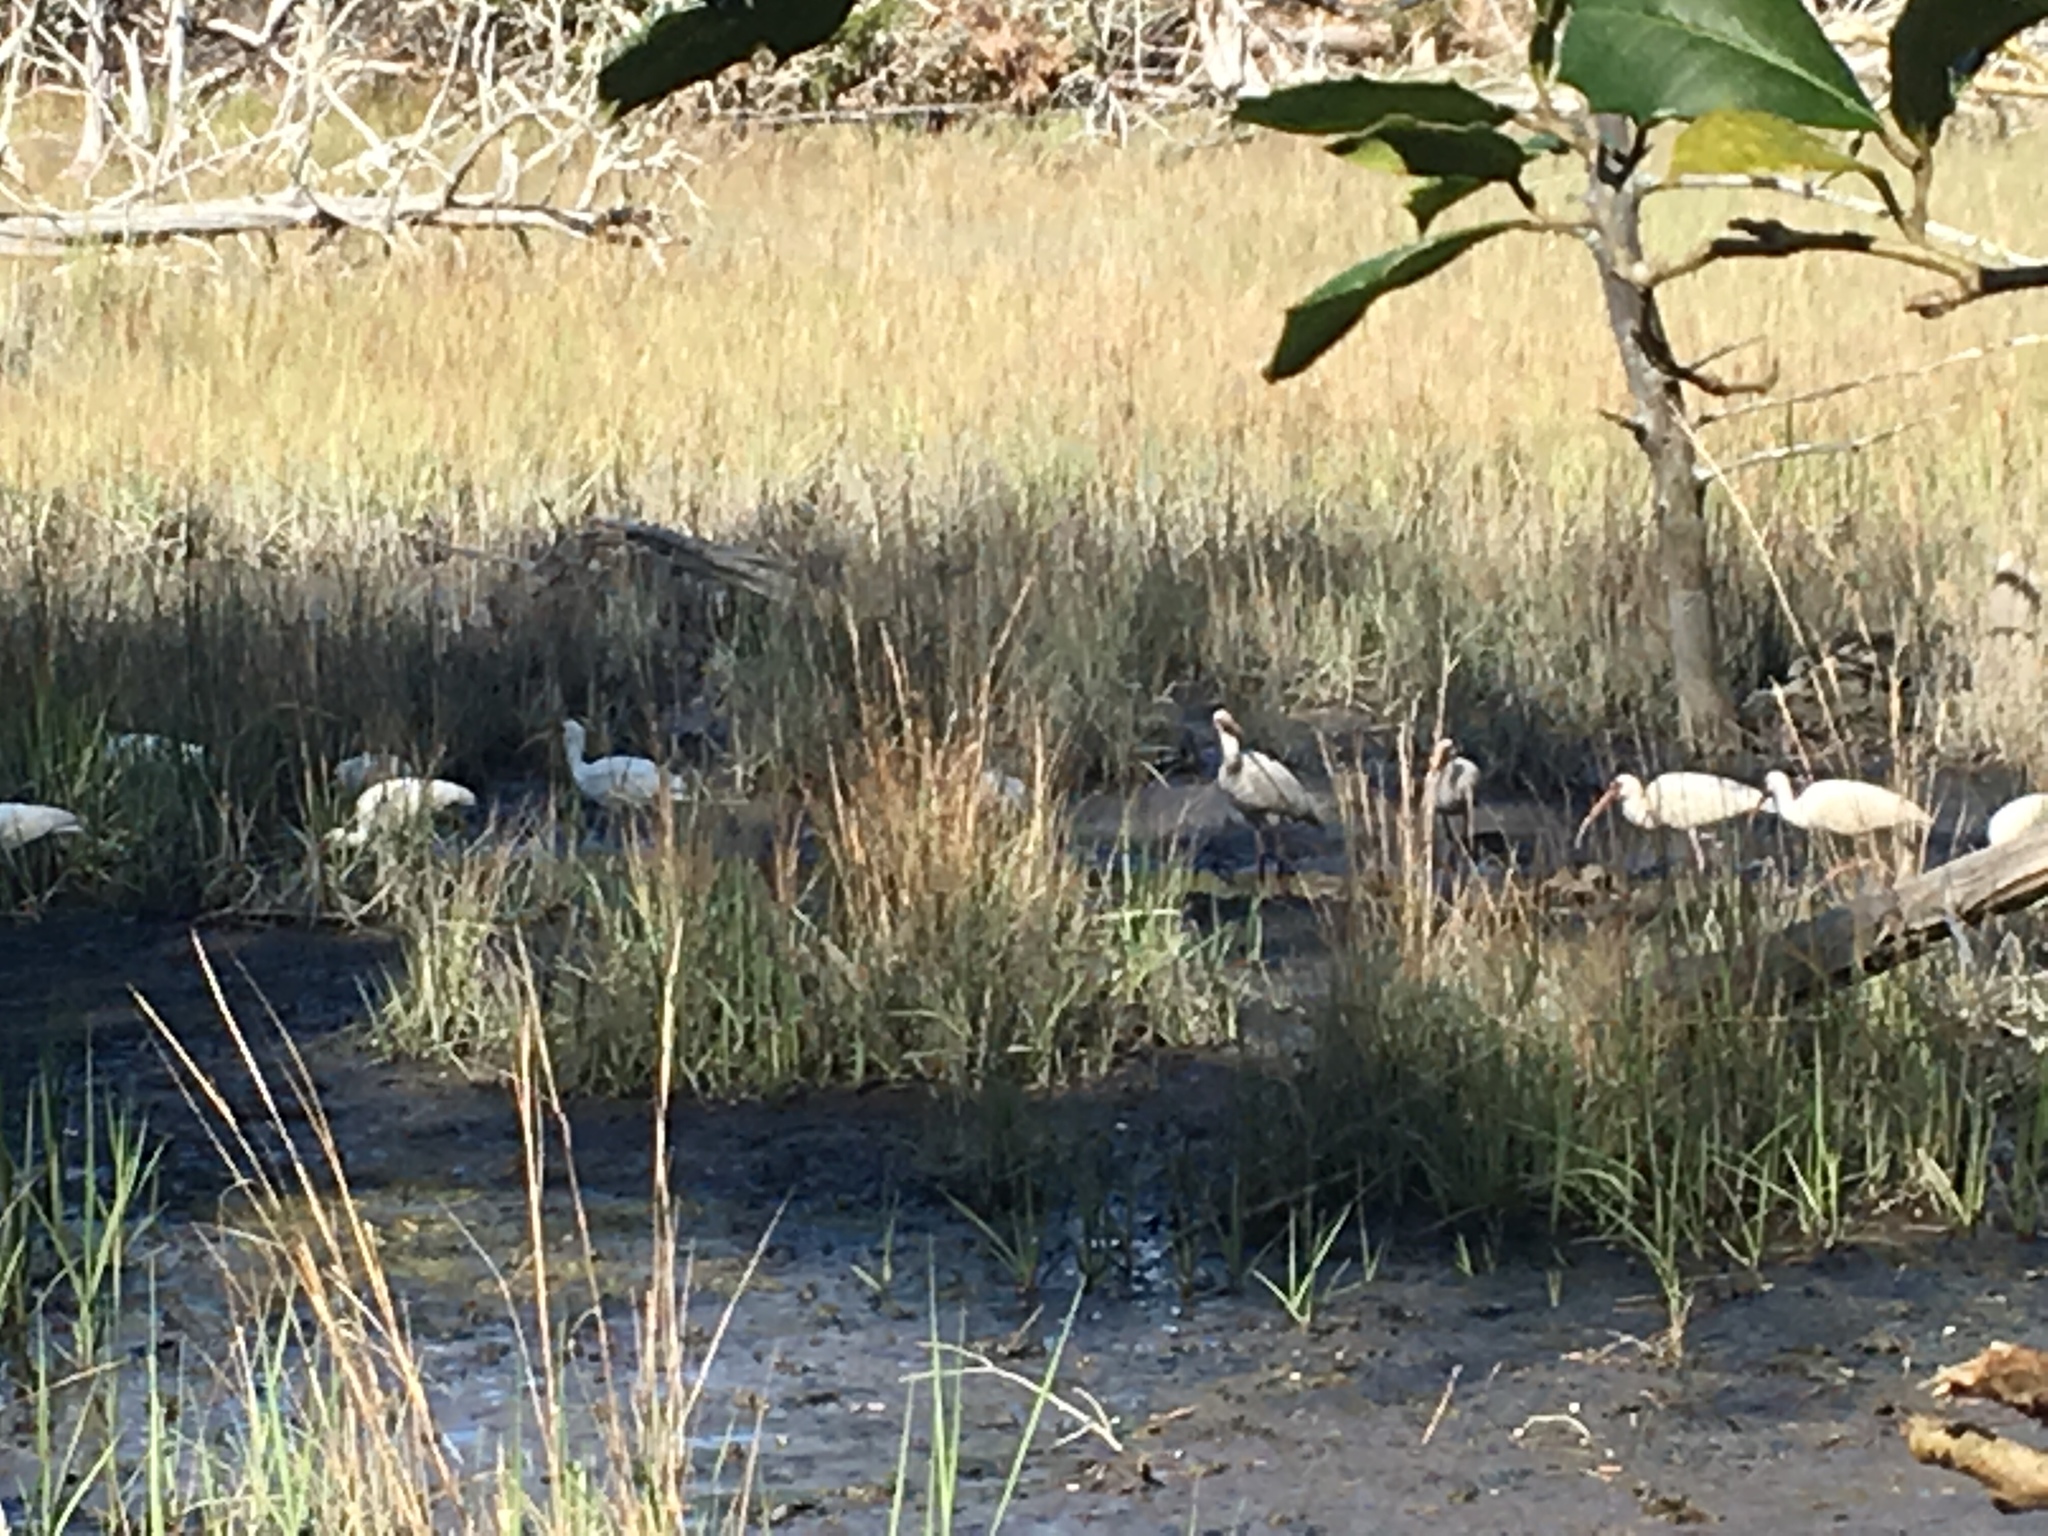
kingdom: Animalia
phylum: Chordata
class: Aves
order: Pelecaniformes
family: Threskiornithidae
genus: Eudocimus
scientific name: Eudocimus albus
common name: White ibis
